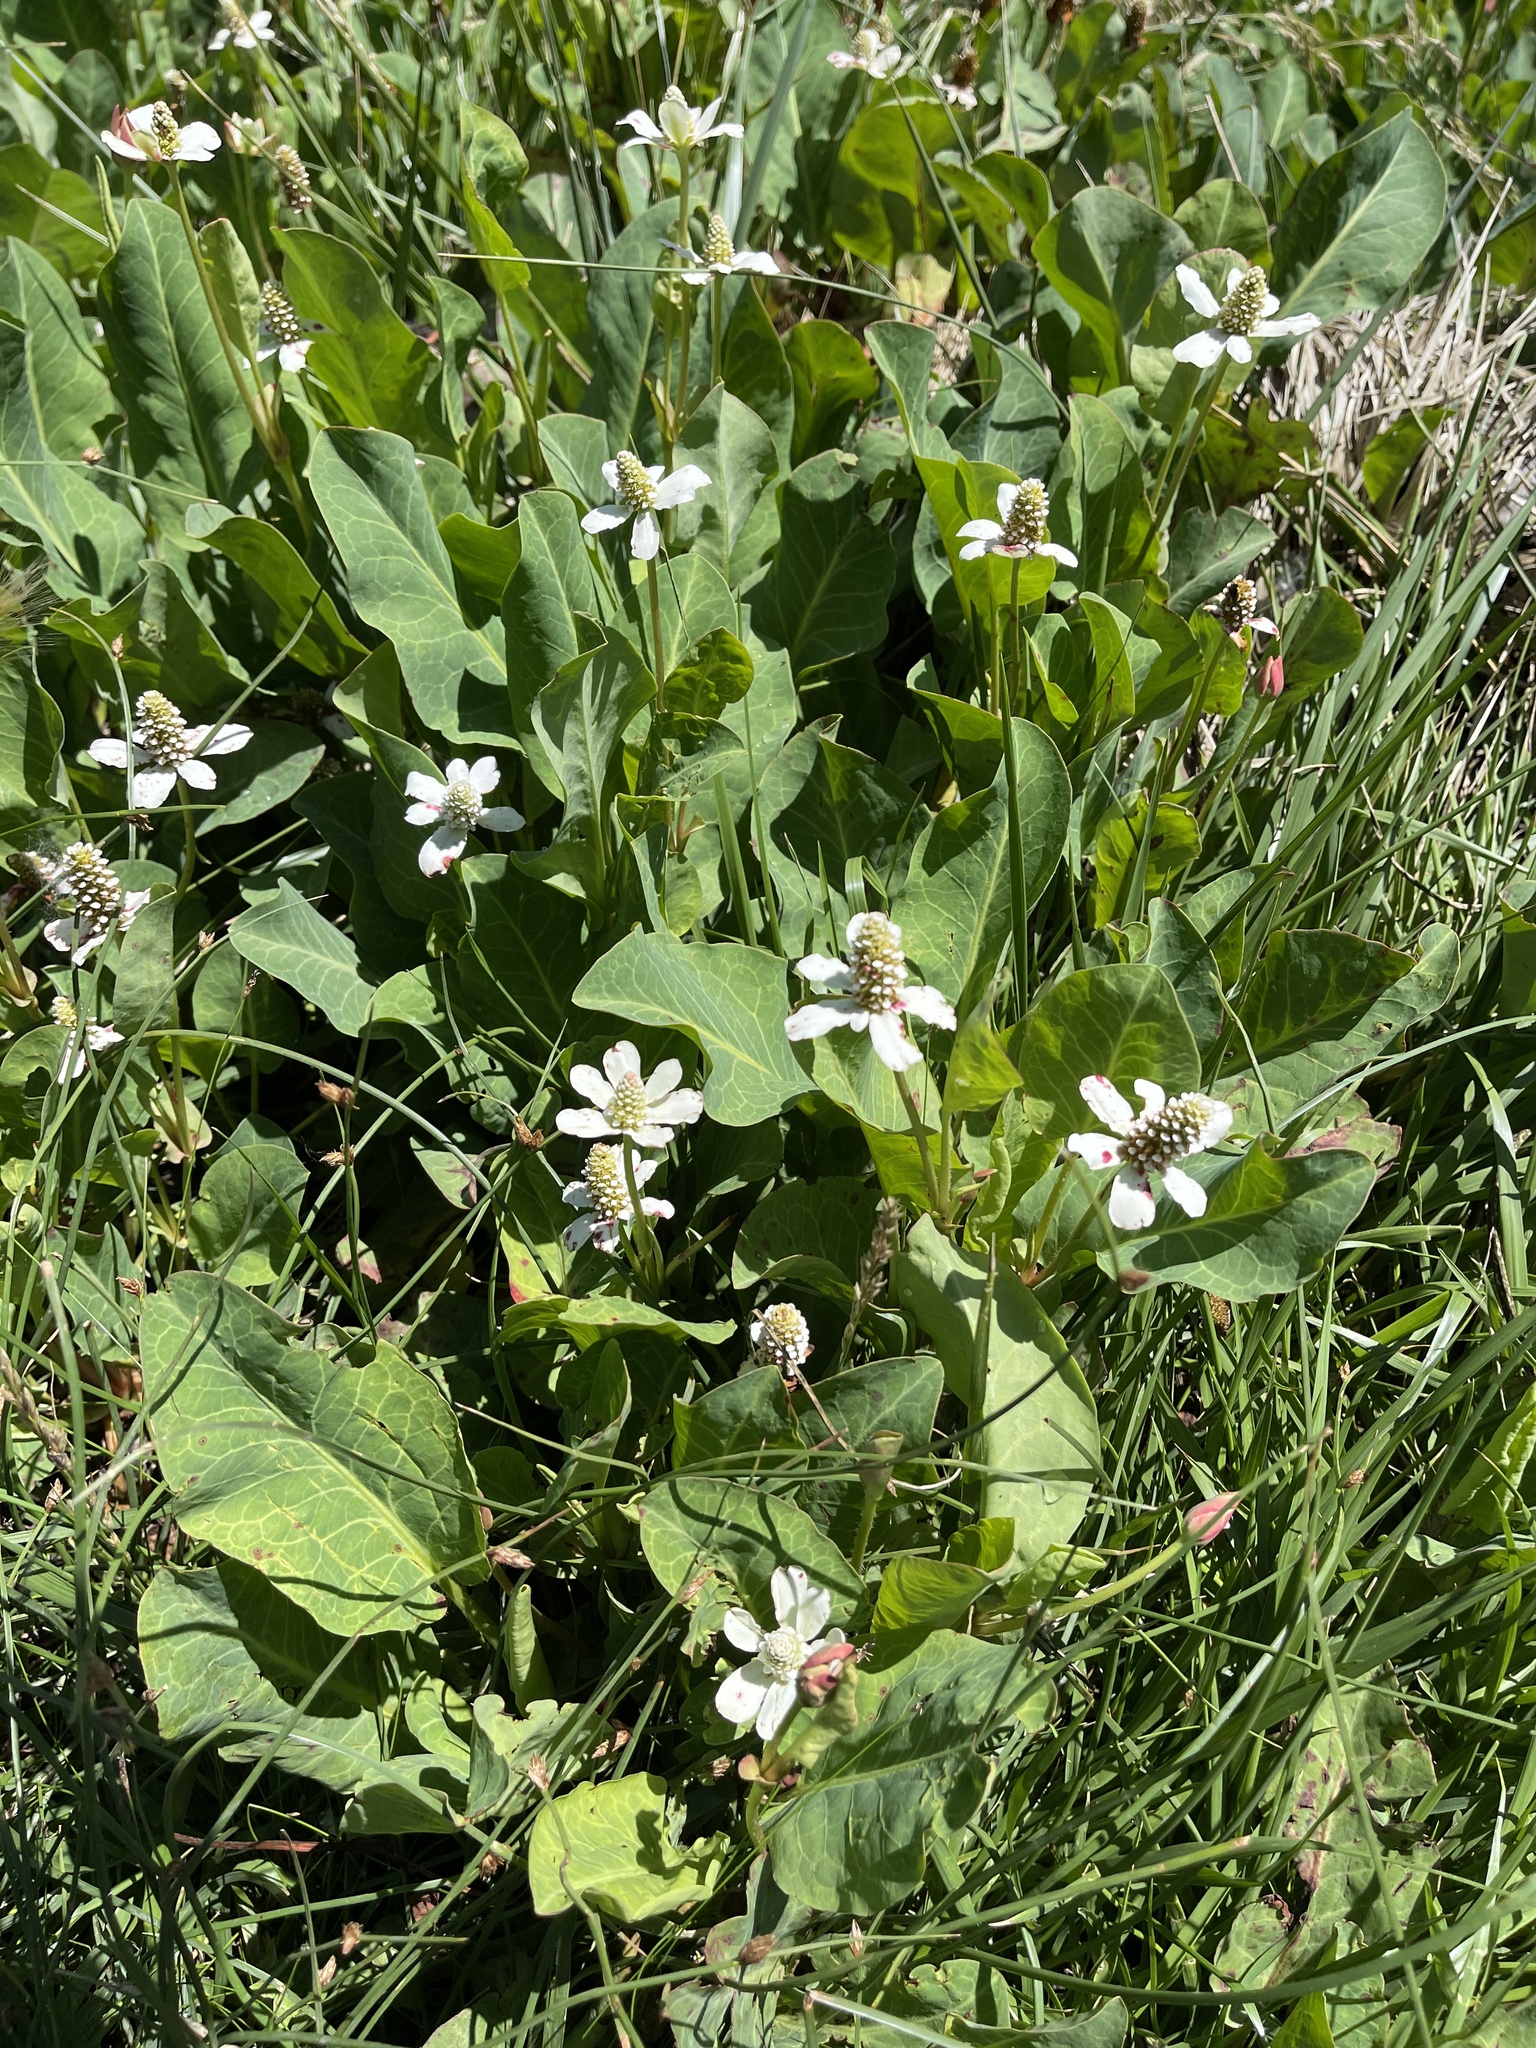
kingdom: Plantae
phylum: Tracheophyta
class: Magnoliopsida
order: Piperales
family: Saururaceae
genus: Anemopsis
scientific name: Anemopsis californica
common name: Apache-beads
